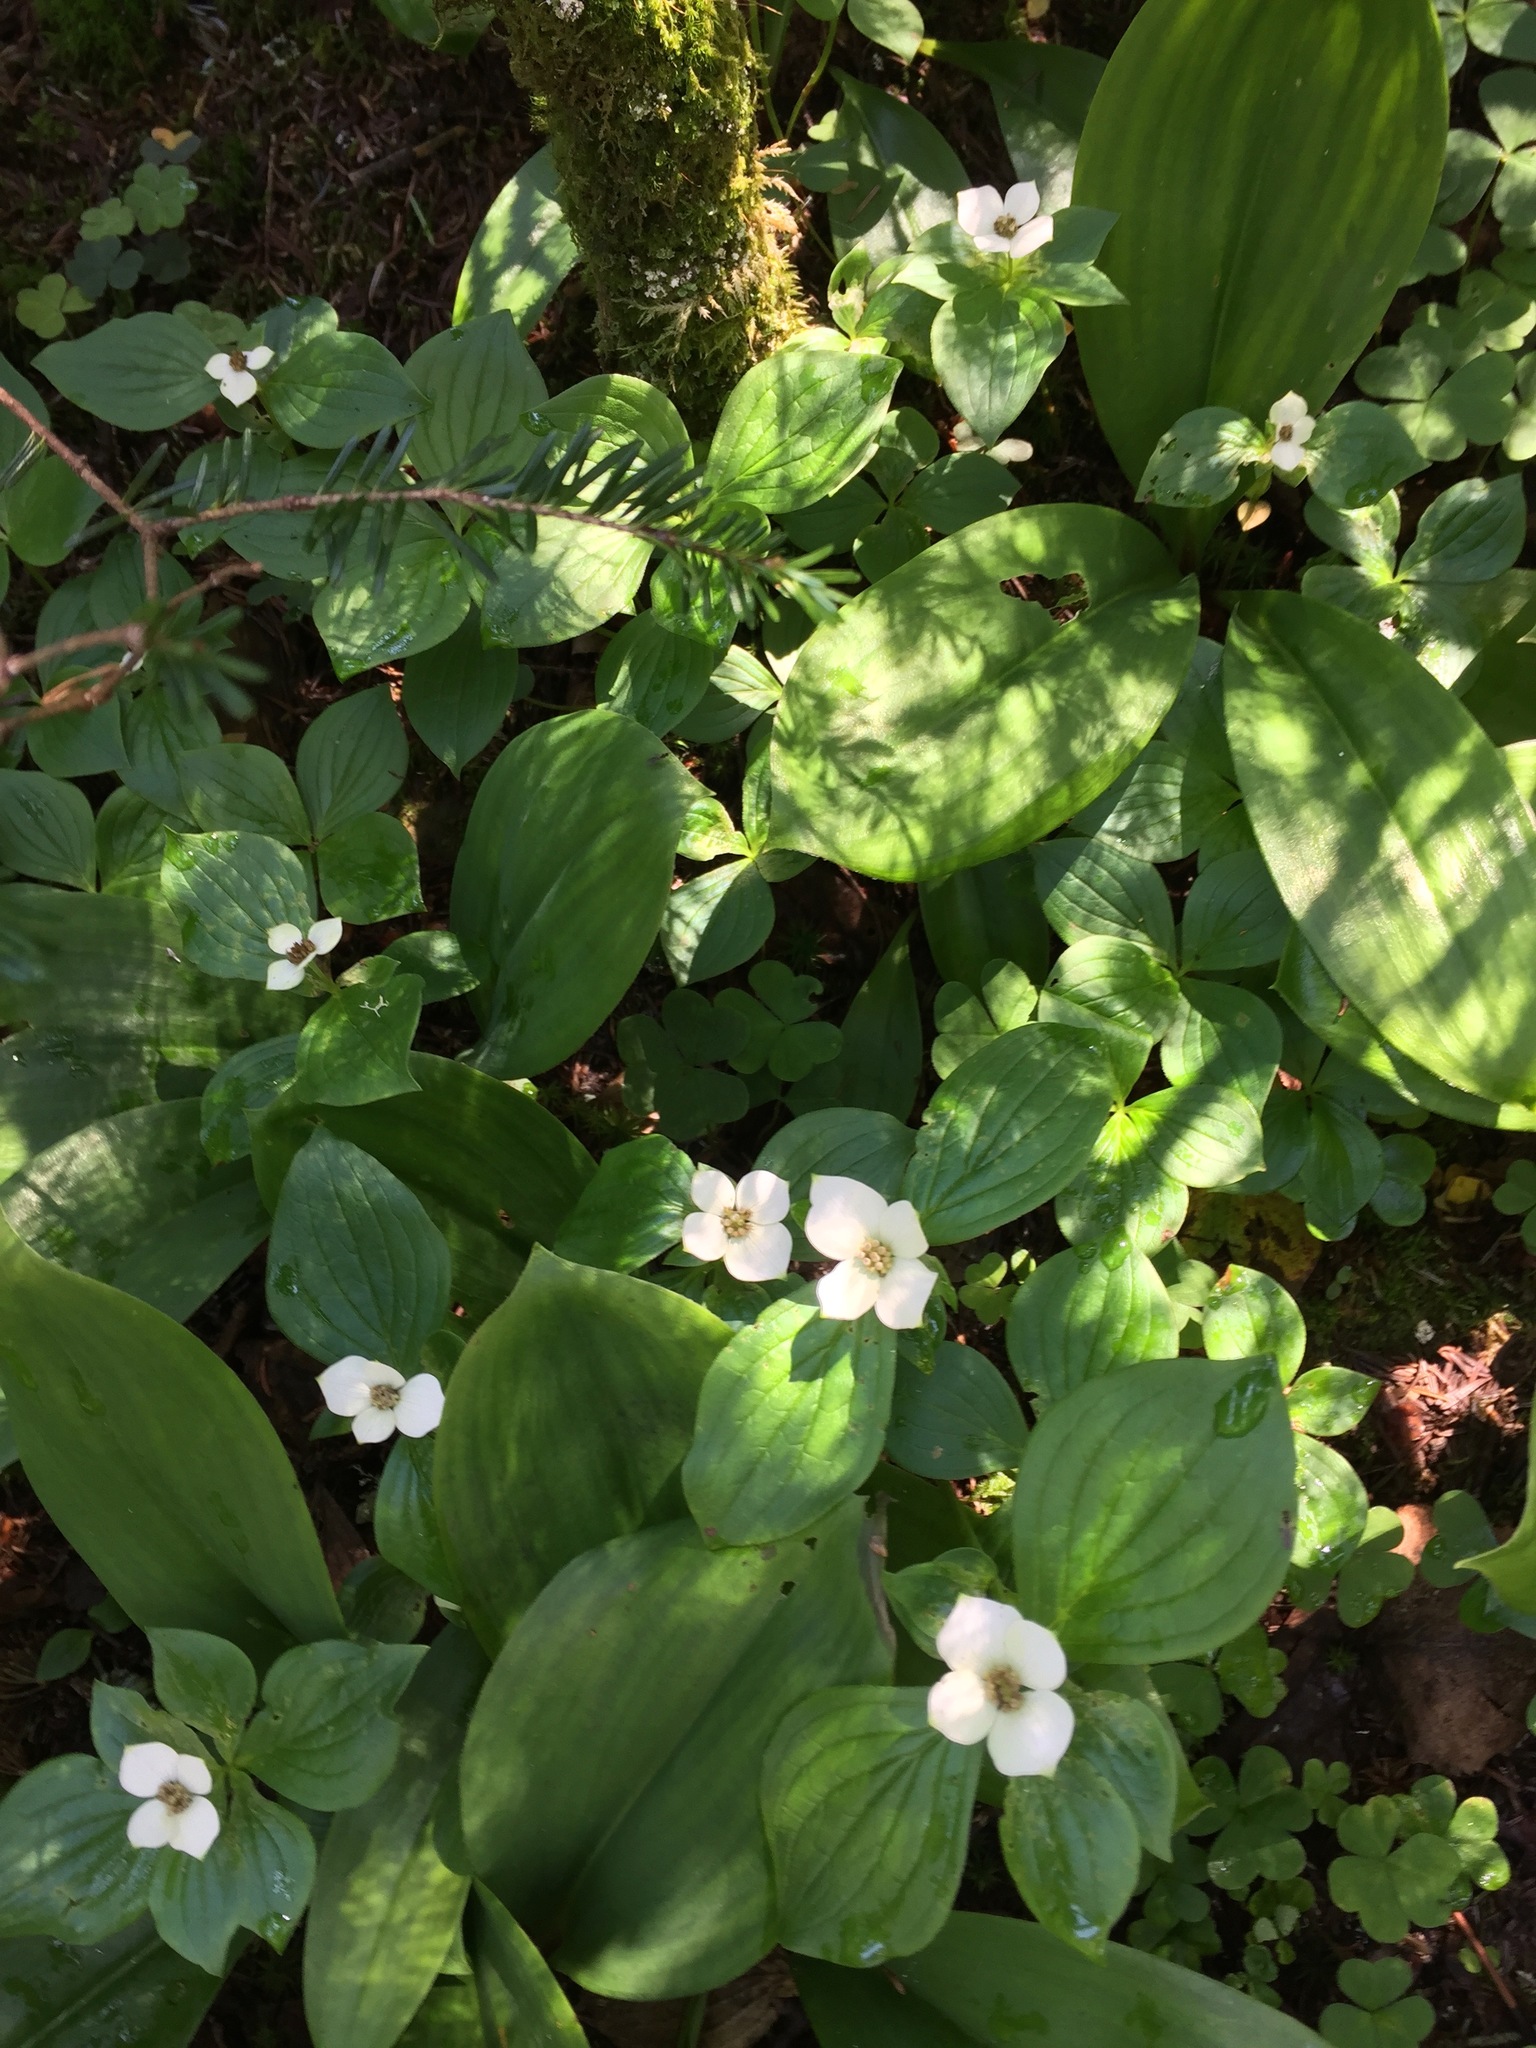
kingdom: Plantae
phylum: Tracheophyta
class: Magnoliopsida
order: Cornales
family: Cornaceae
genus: Cornus
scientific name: Cornus canadensis
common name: Creeping dogwood
